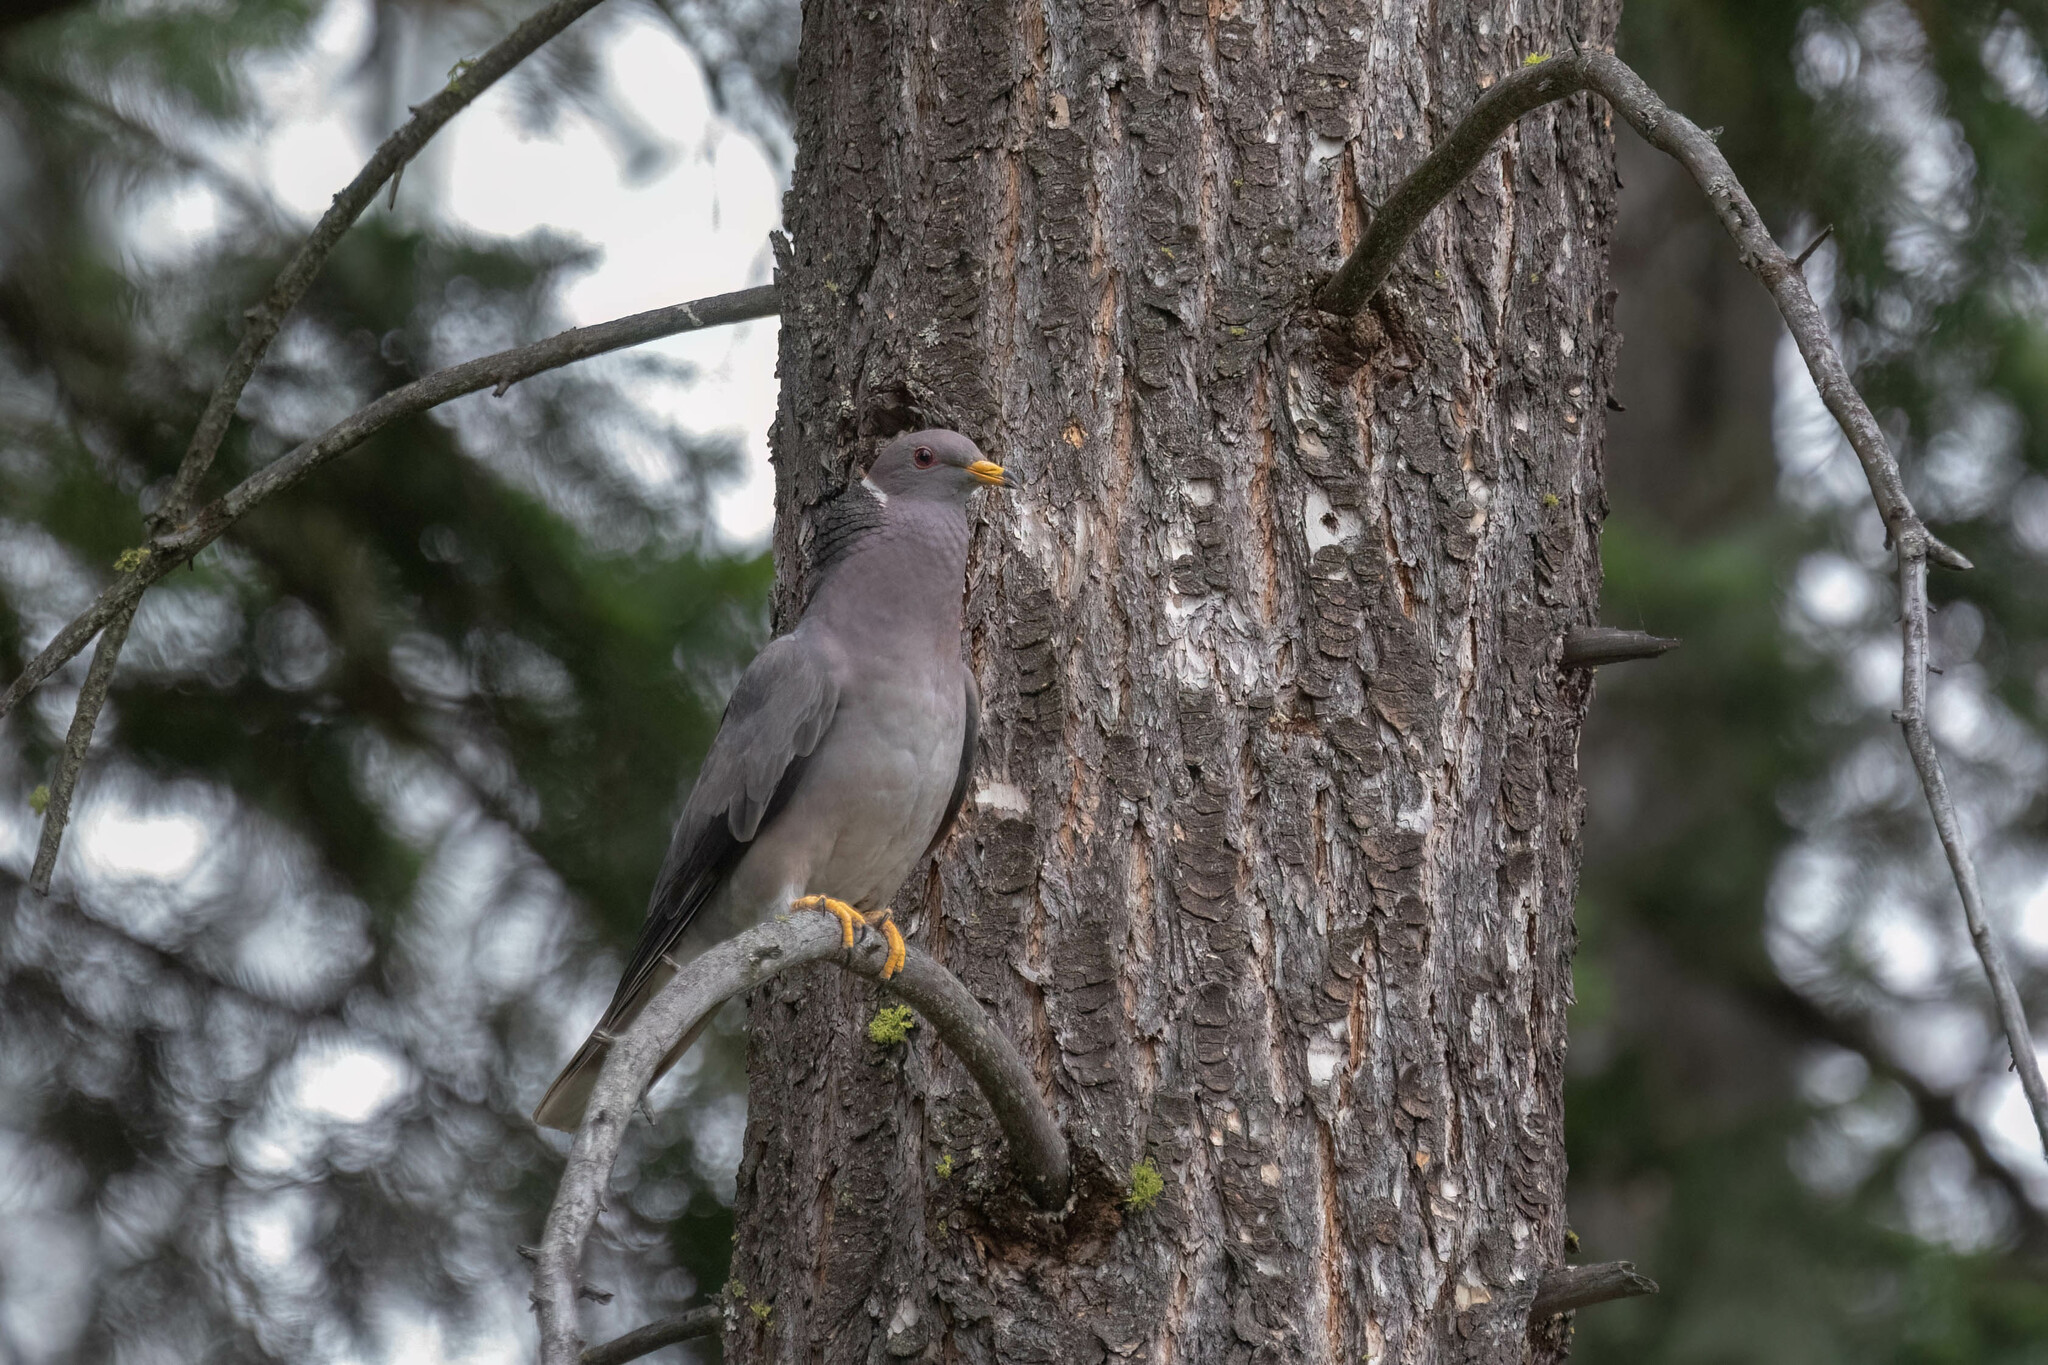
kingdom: Animalia
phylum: Chordata
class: Aves
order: Columbiformes
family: Columbidae
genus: Patagioenas
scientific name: Patagioenas fasciata
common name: Band-tailed pigeon
